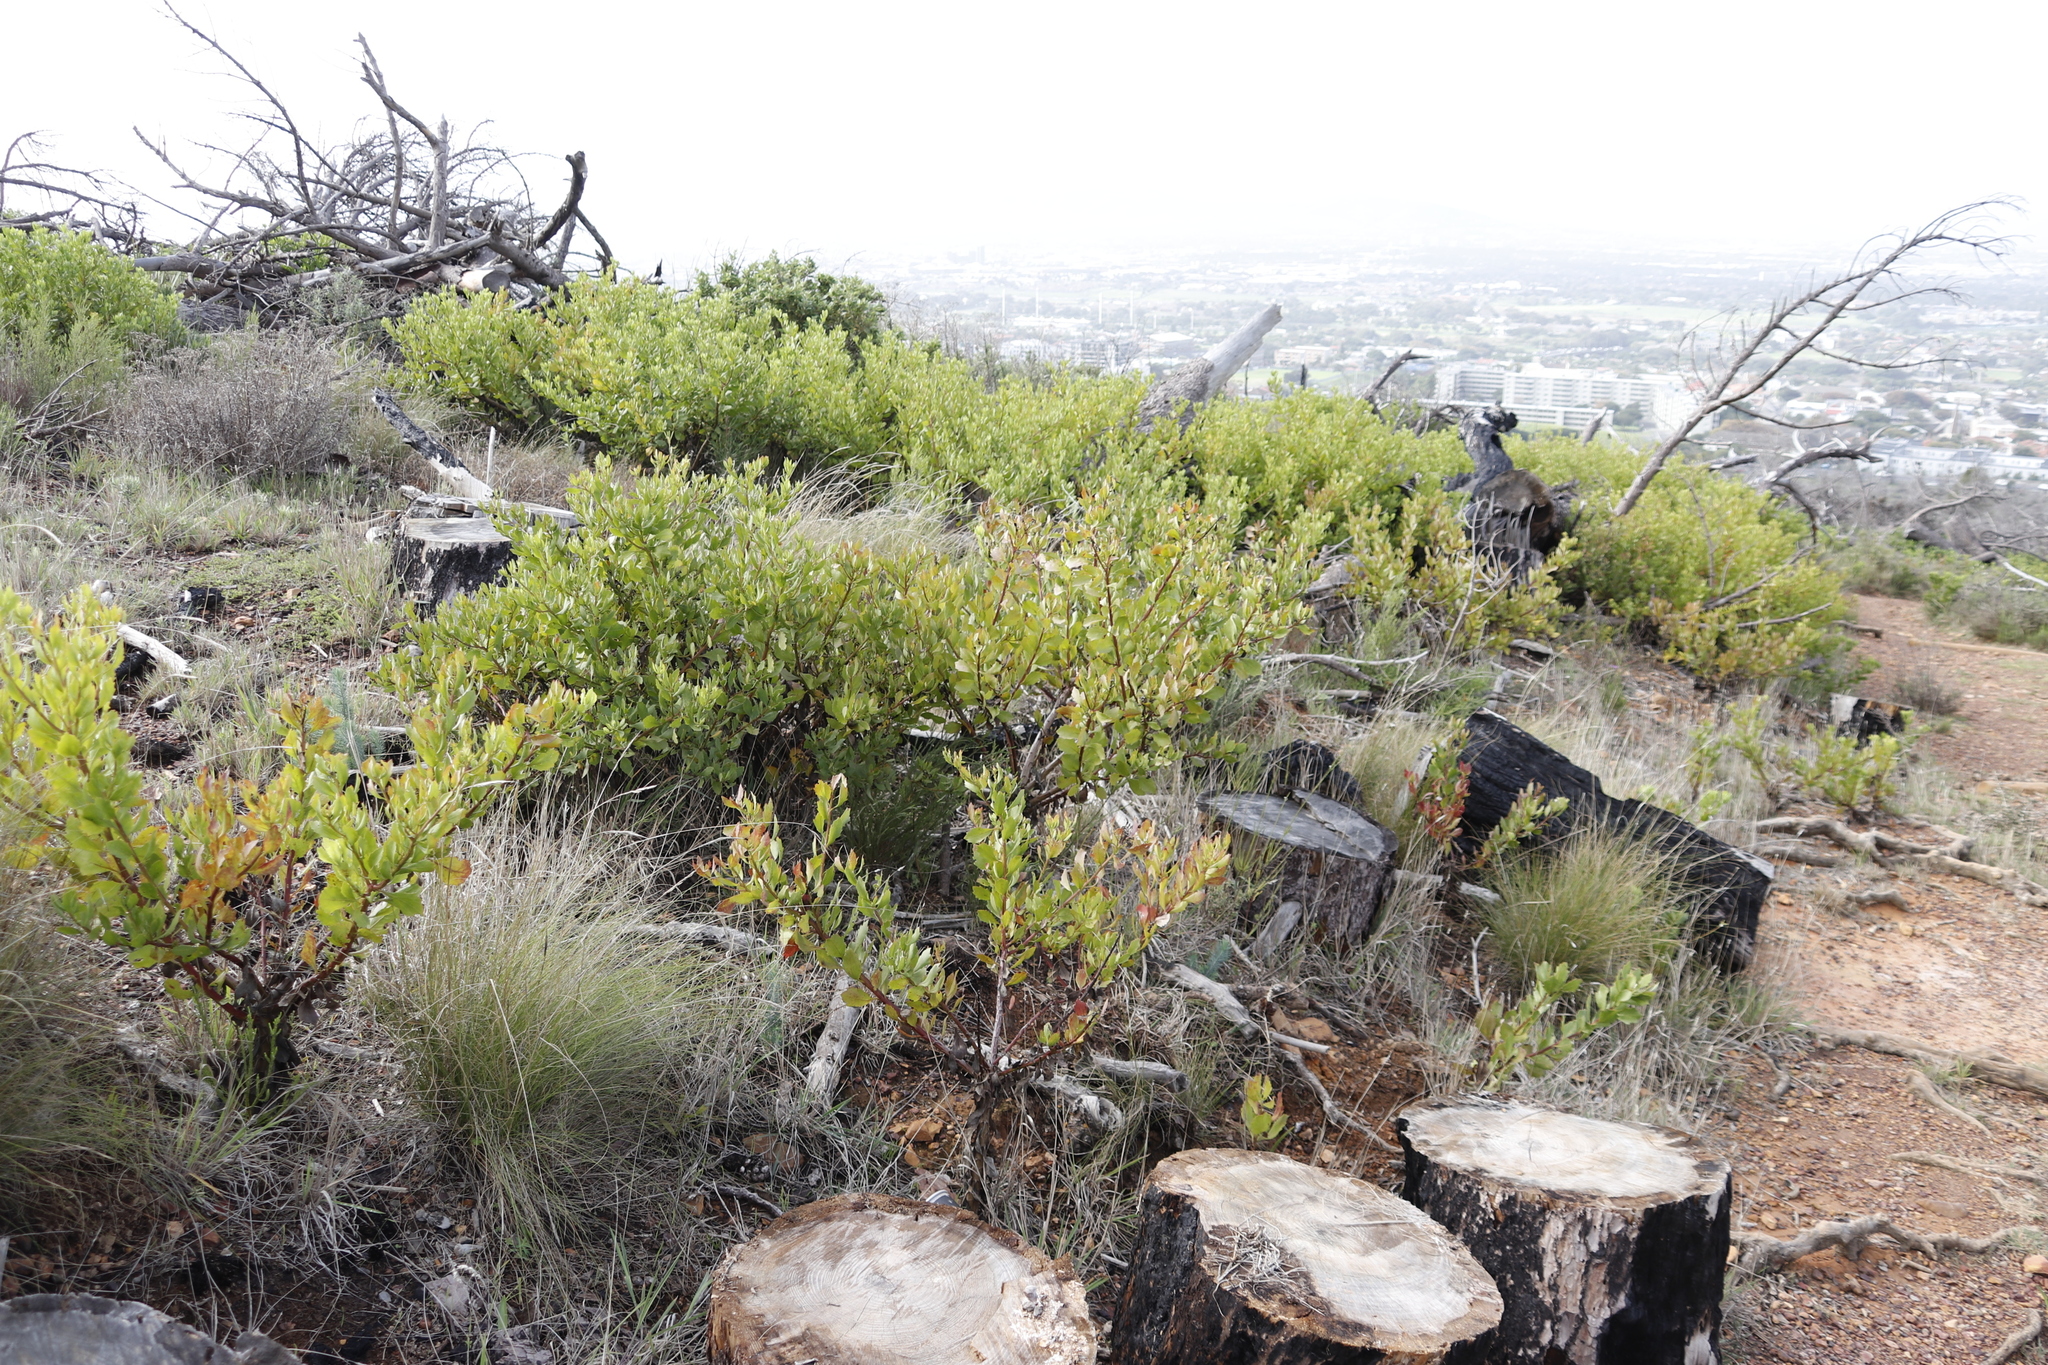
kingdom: Plantae
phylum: Tracheophyta
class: Magnoliopsida
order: Asterales
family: Asteraceae
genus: Osteospermum
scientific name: Osteospermum moniliferum
